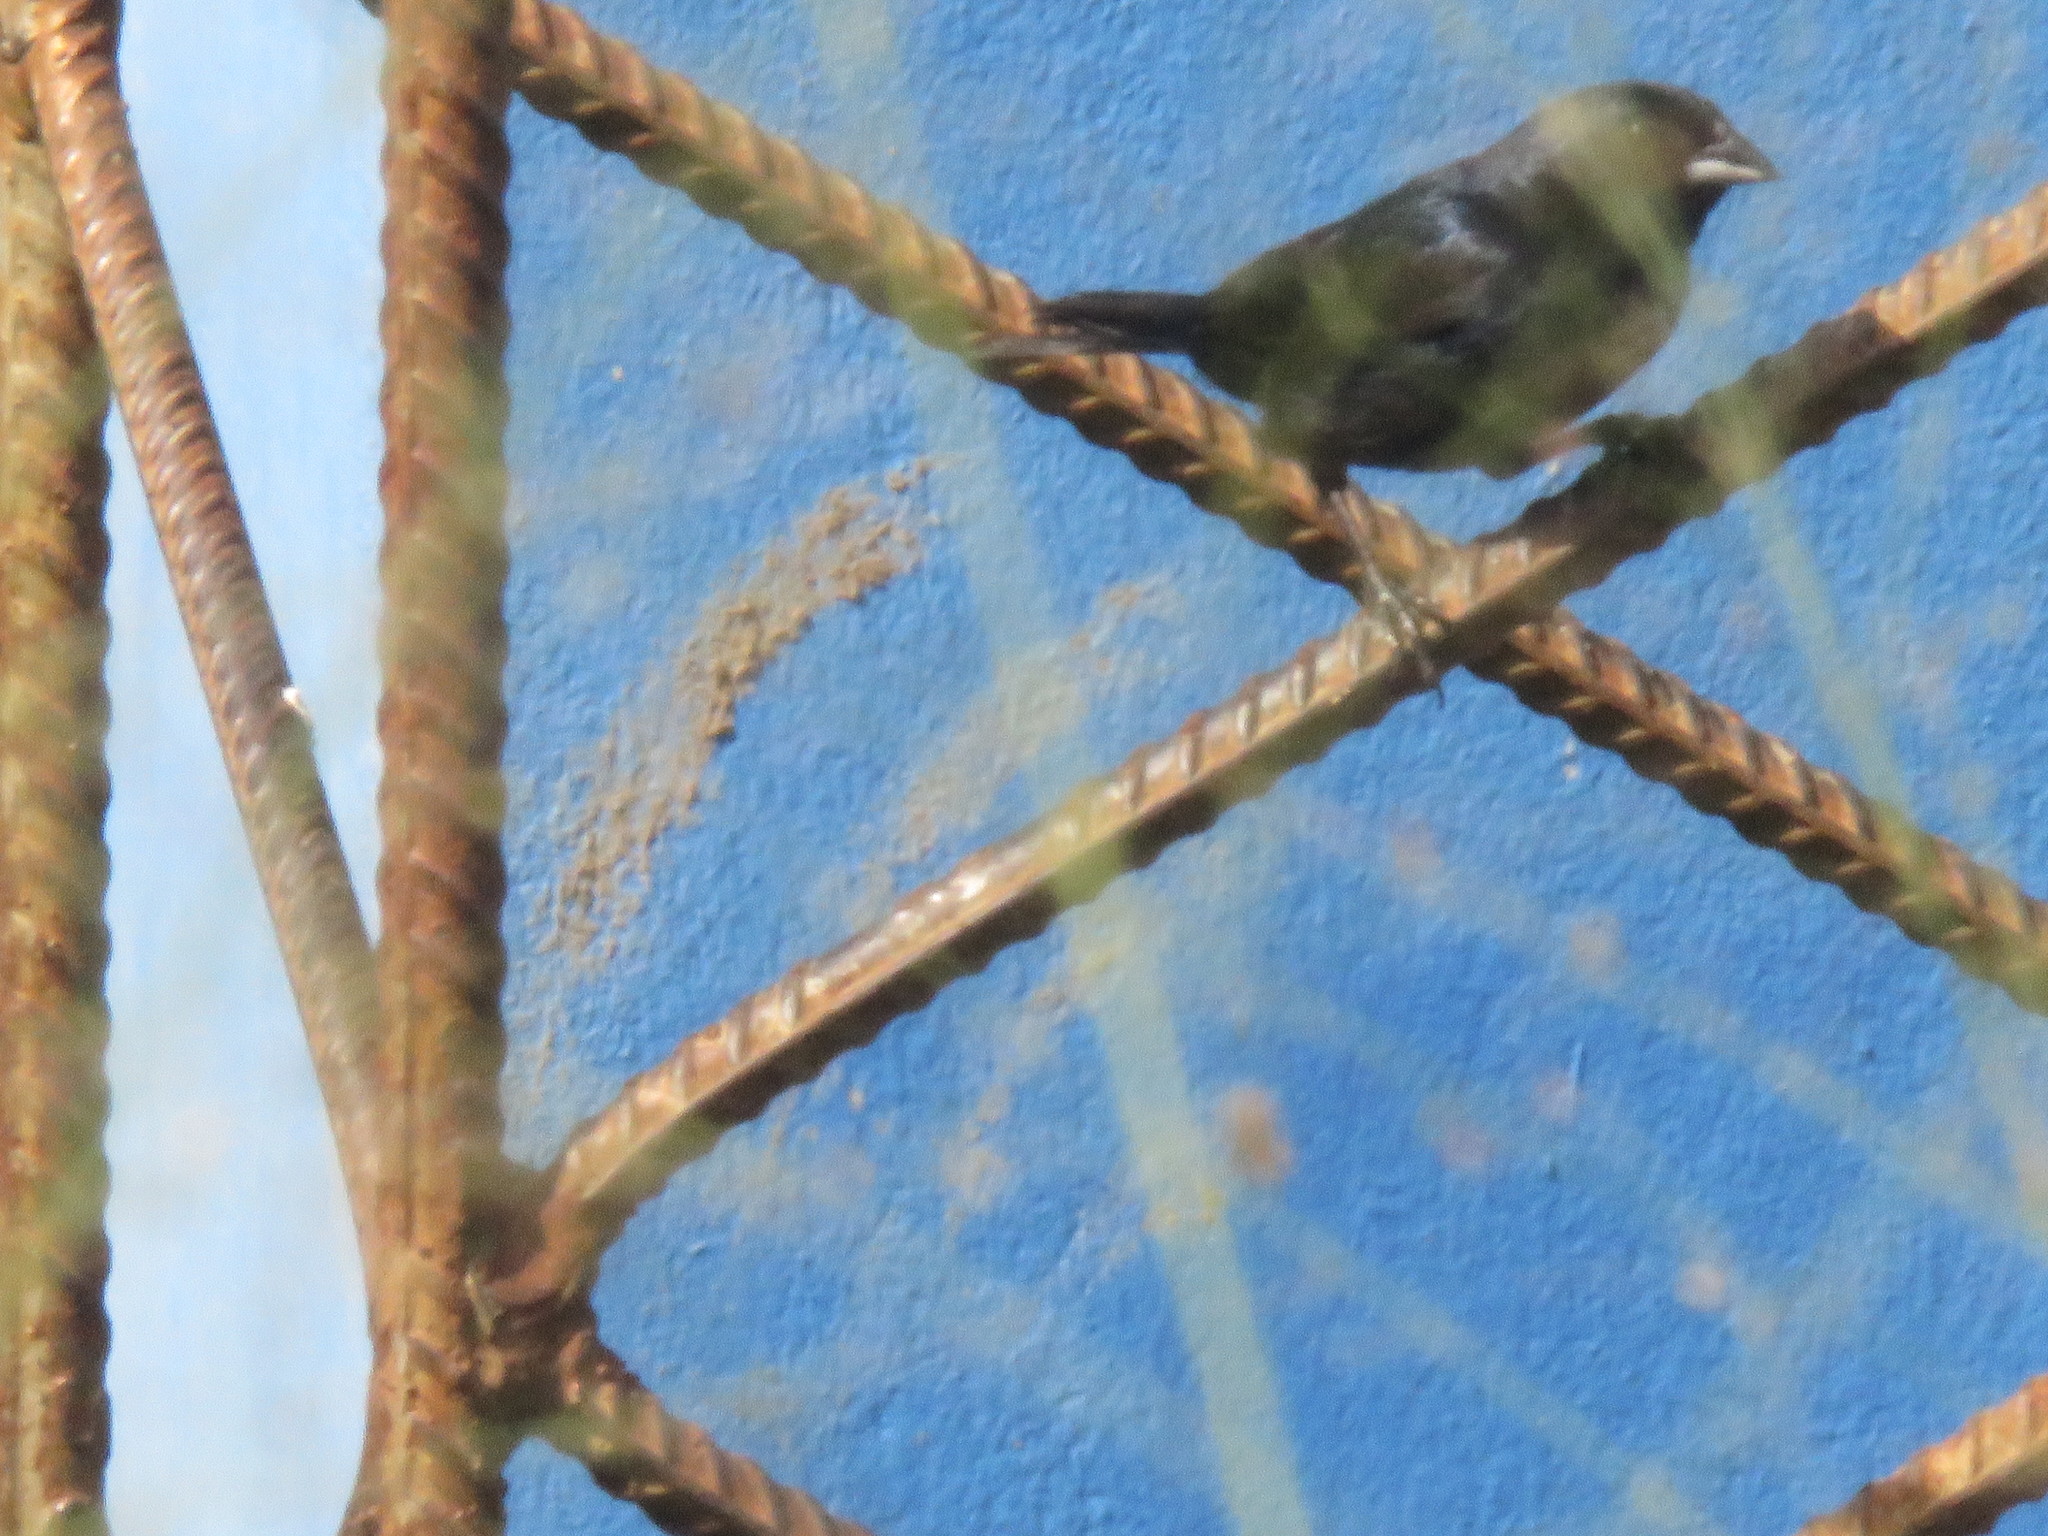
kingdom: Animalia
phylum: Chordata
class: Aves
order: Passeriformes
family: Thraupidae
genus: Volatinia
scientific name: Volatinia jacarina
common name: Blue-black grassquit
